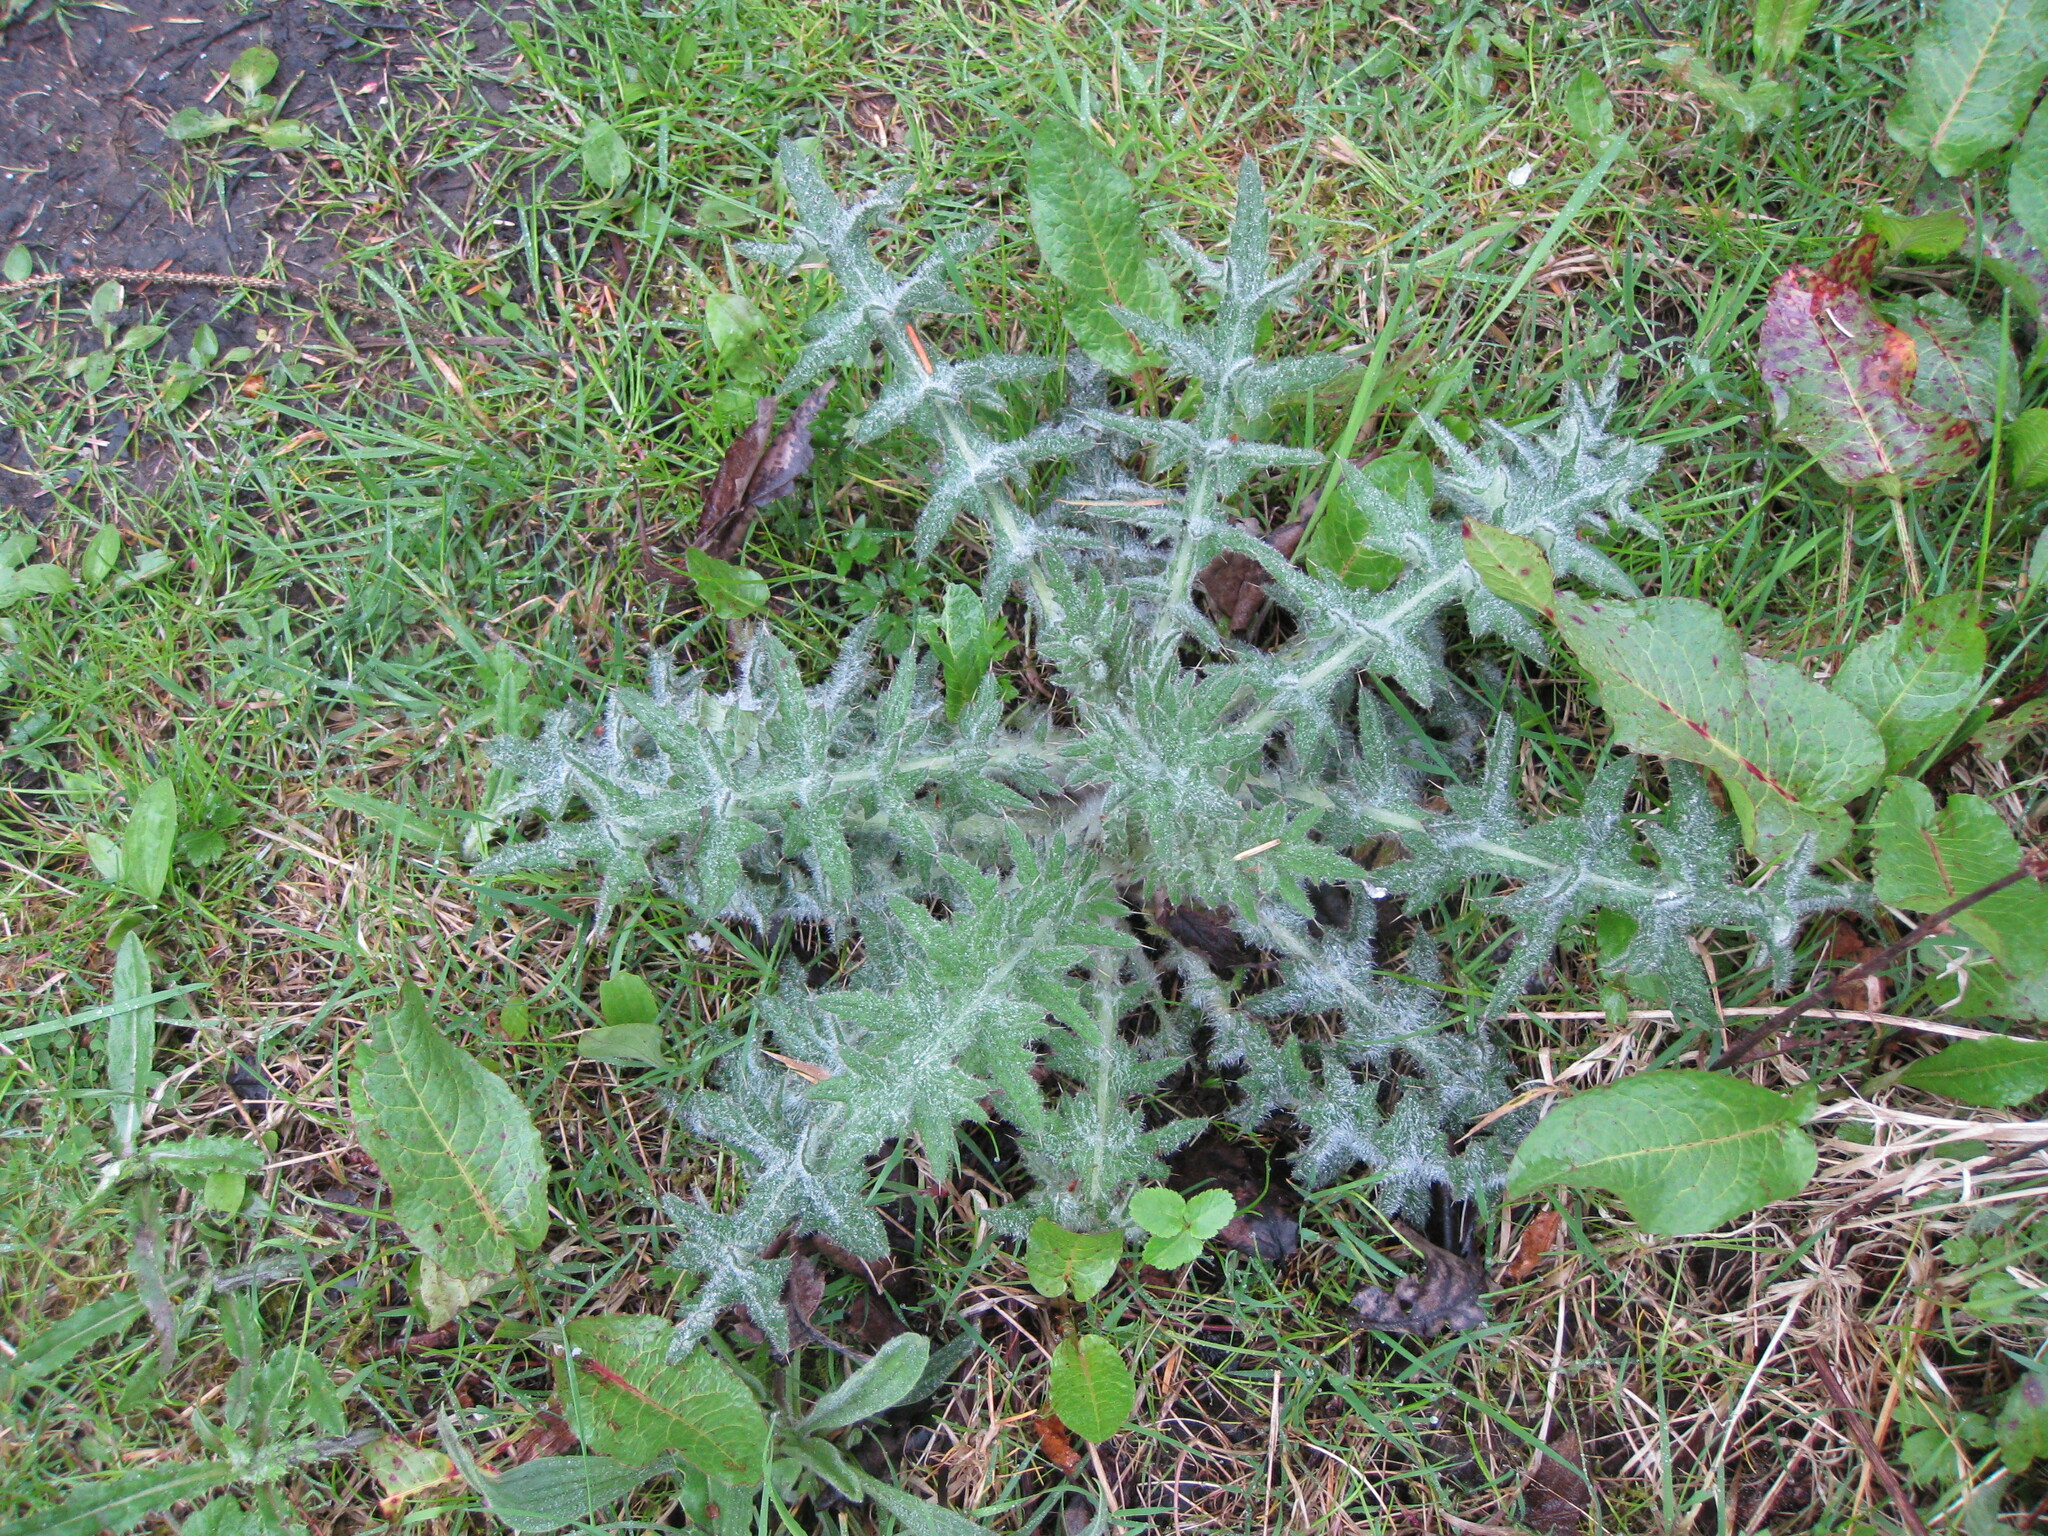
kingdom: Plantae
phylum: Tracheophyta
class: Magnoliopsida
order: Asterales
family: Asteraceae
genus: Cirsium
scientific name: Cirsium vulgare
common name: Bull thistle
